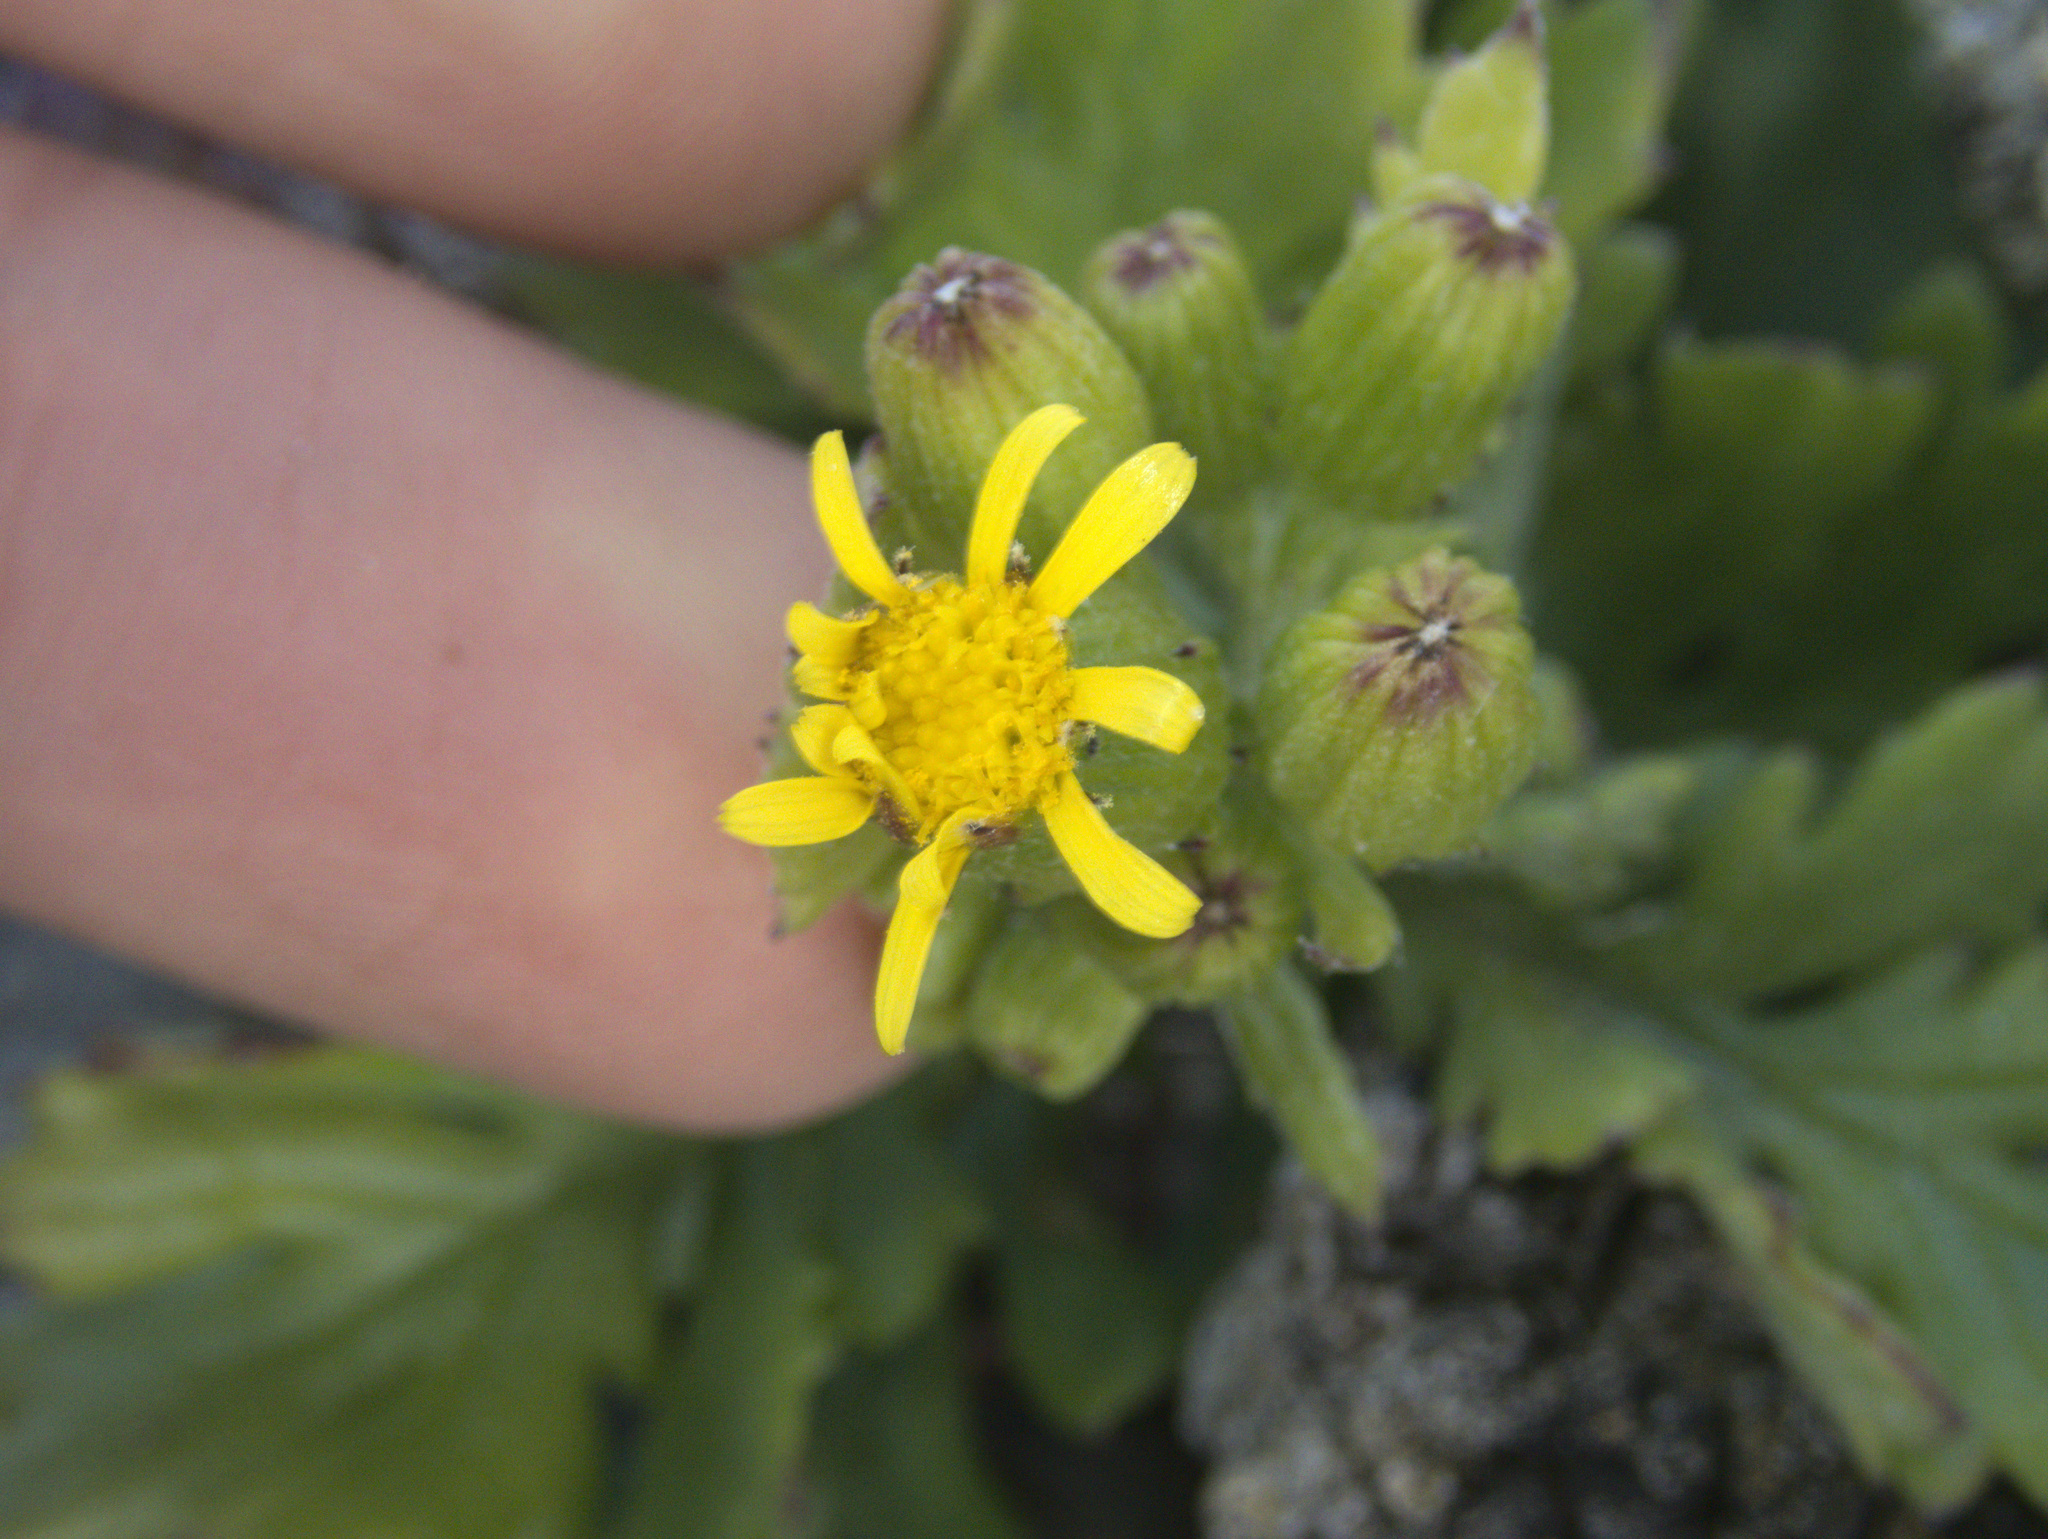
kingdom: Plantae
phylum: Tracheophyta
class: Magnoliopsida
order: Asterales
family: Asteraceae
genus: Senecio
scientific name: Senecio radiolatus
